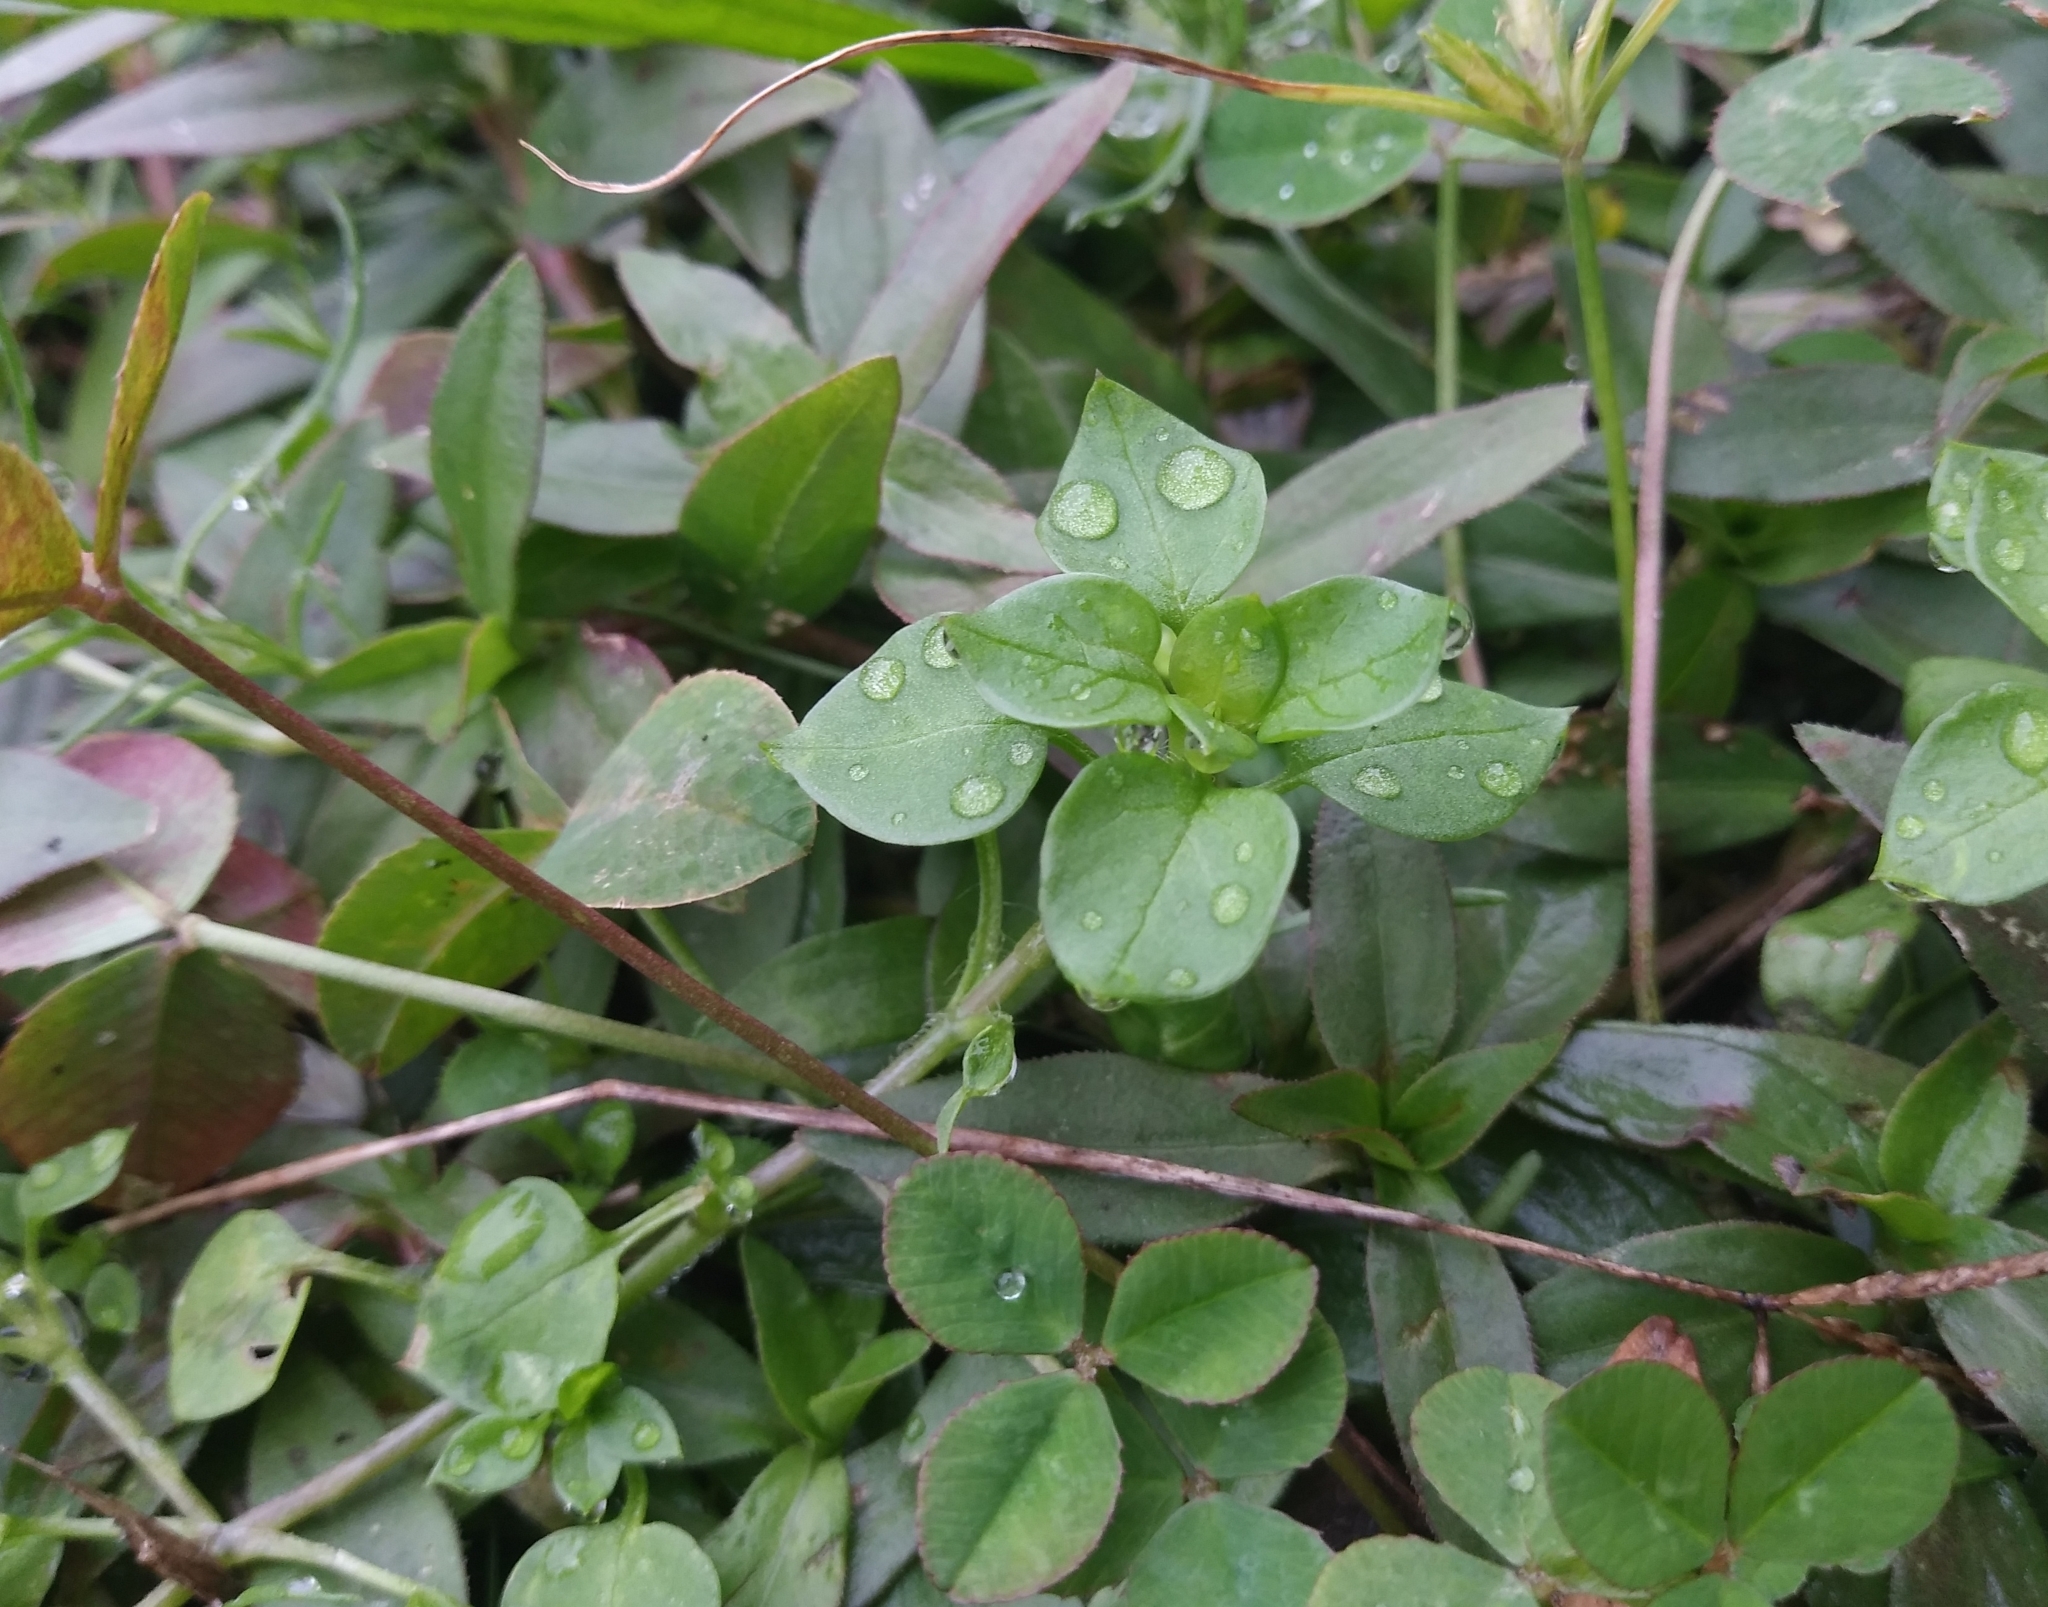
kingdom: Plantae
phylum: Tracheophyta
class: Magnoliopsida
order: Caryophyllales
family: Caryophyllaceae
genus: Stellaria
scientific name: Stellaria media
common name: Common chickweed
